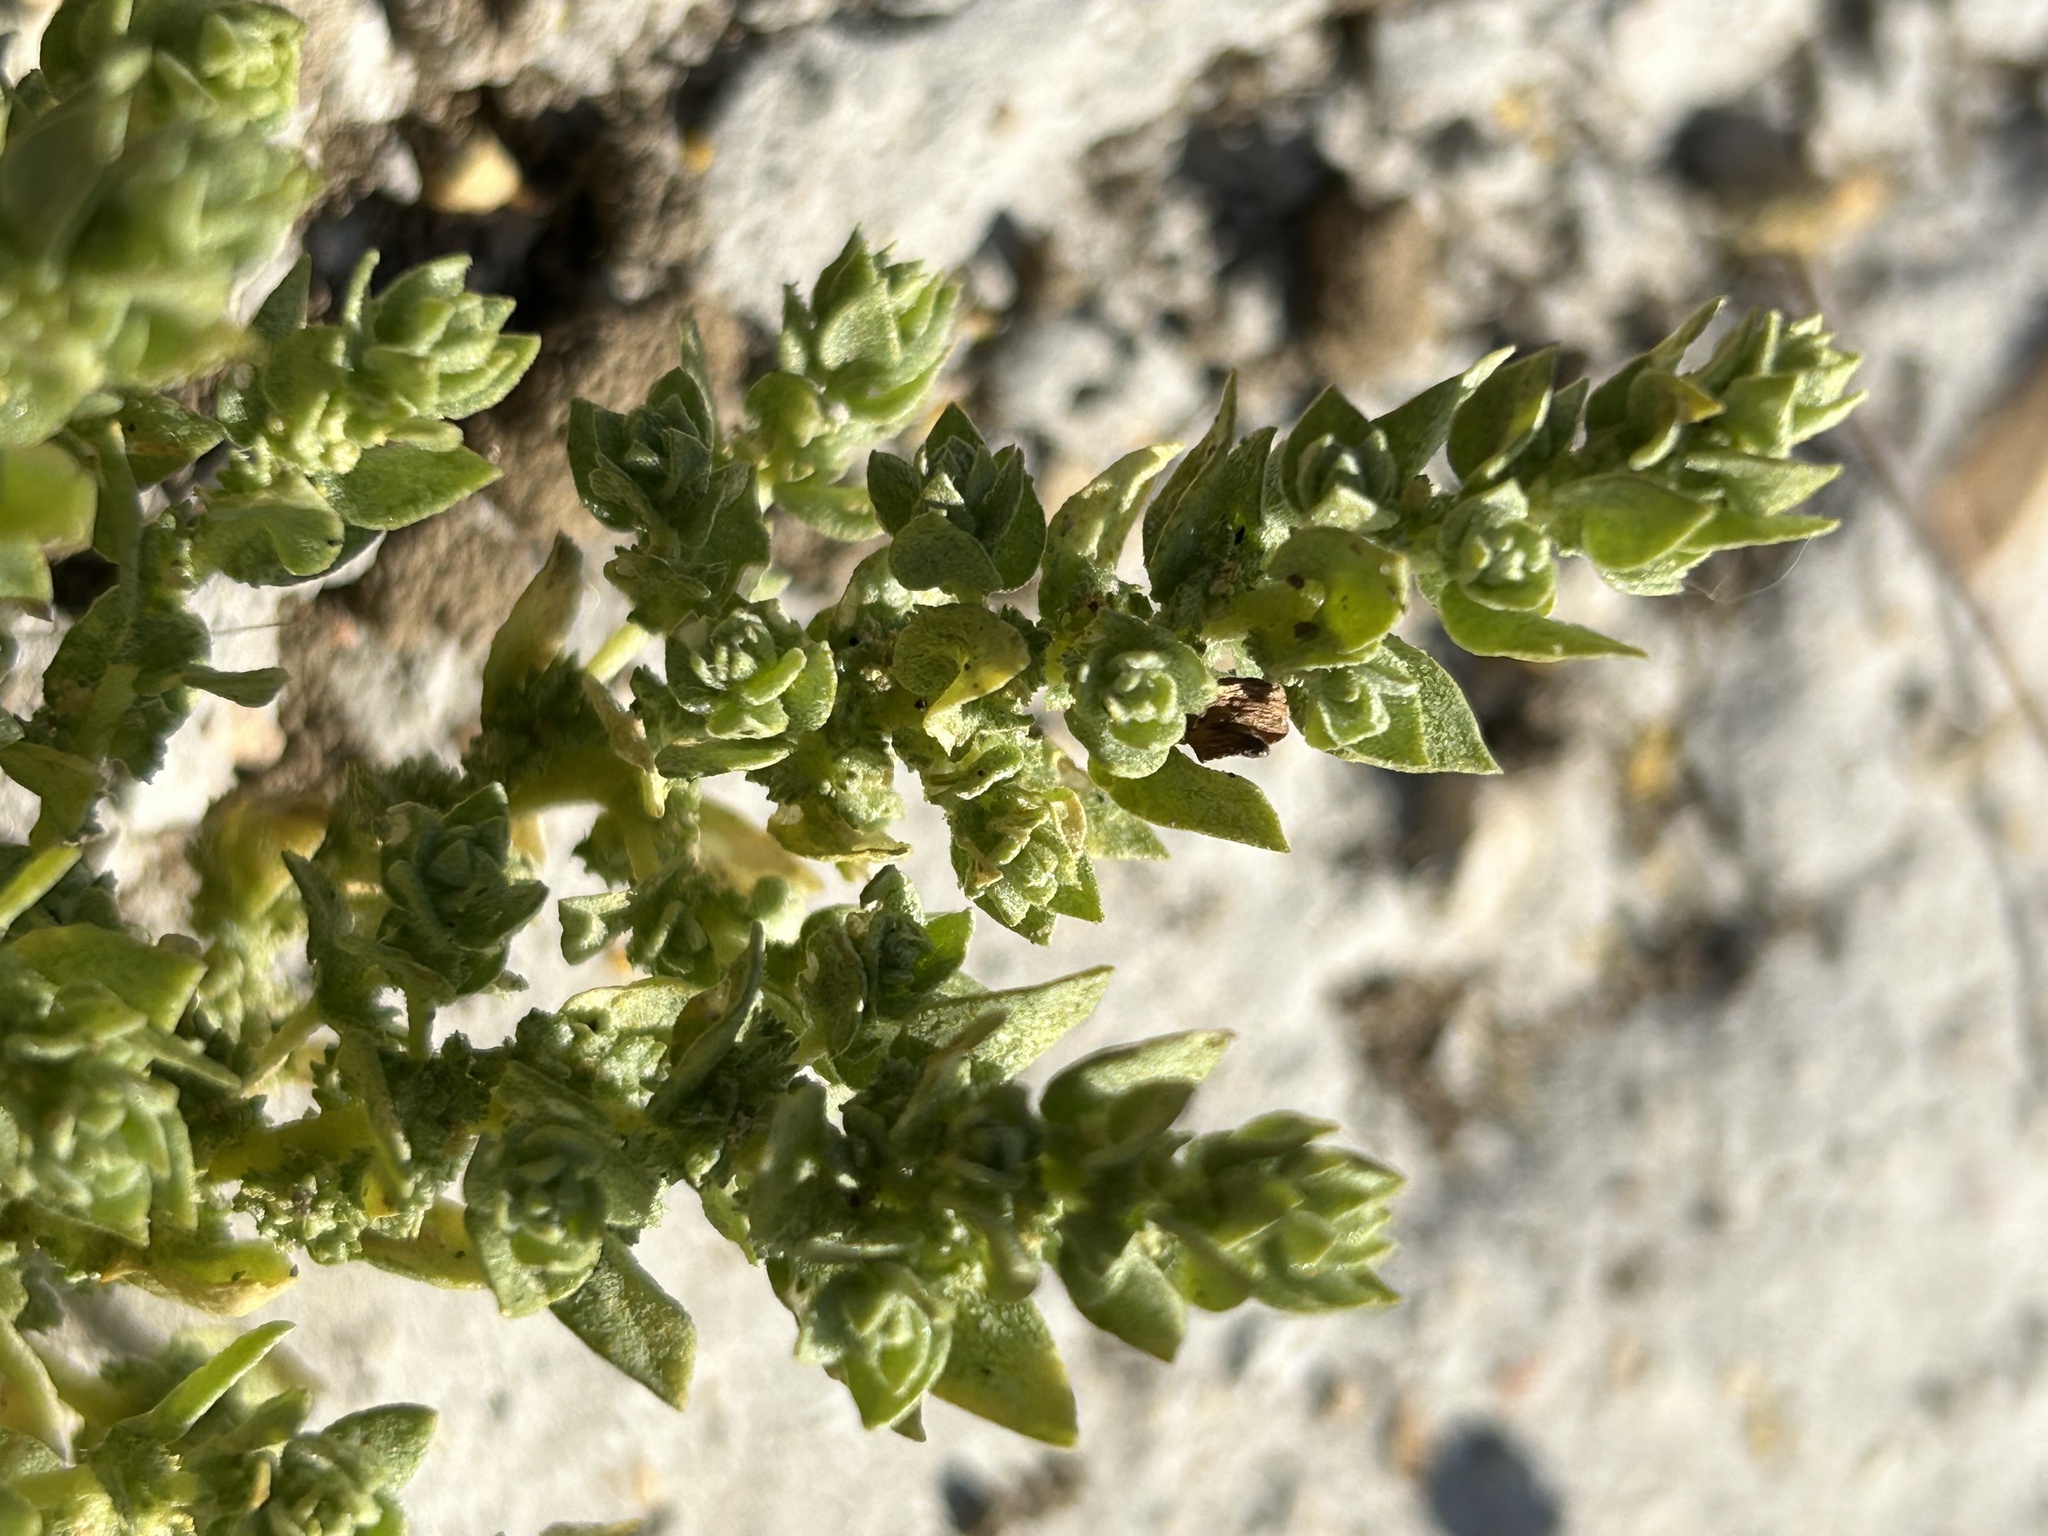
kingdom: Plantae
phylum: Tracheophyta
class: Magnoliopsida
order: Caryophyllales
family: Amaranthaceae
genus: Atriplex
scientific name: Atriplex flavida
